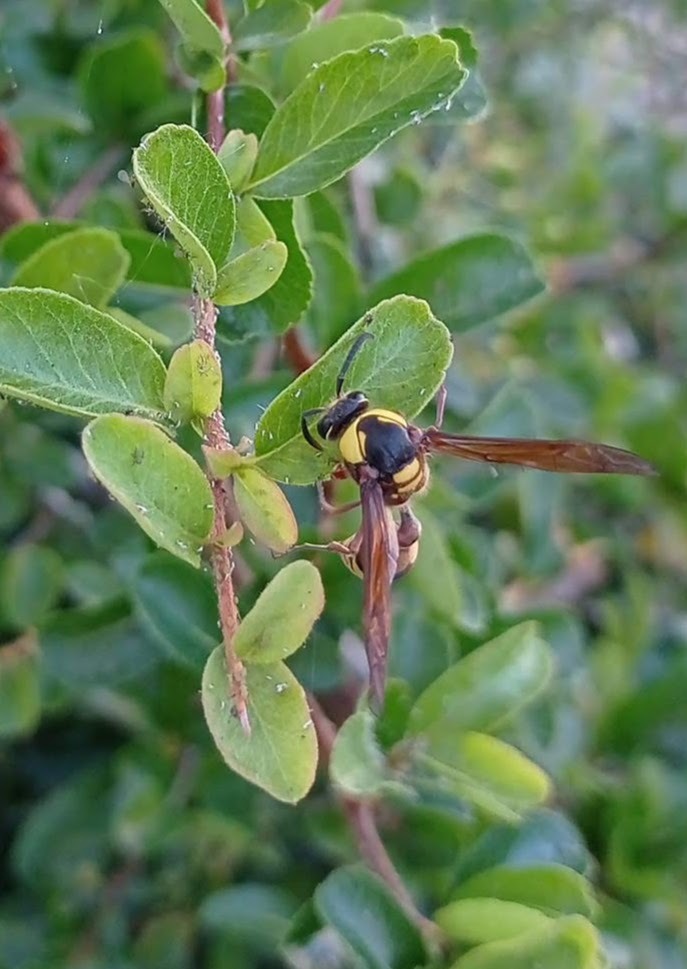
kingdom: Animalia
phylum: Arthropoda
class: Insecta
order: Hymenoptera
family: Eumenidae
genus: Delta
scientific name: Delta unguiculatum
